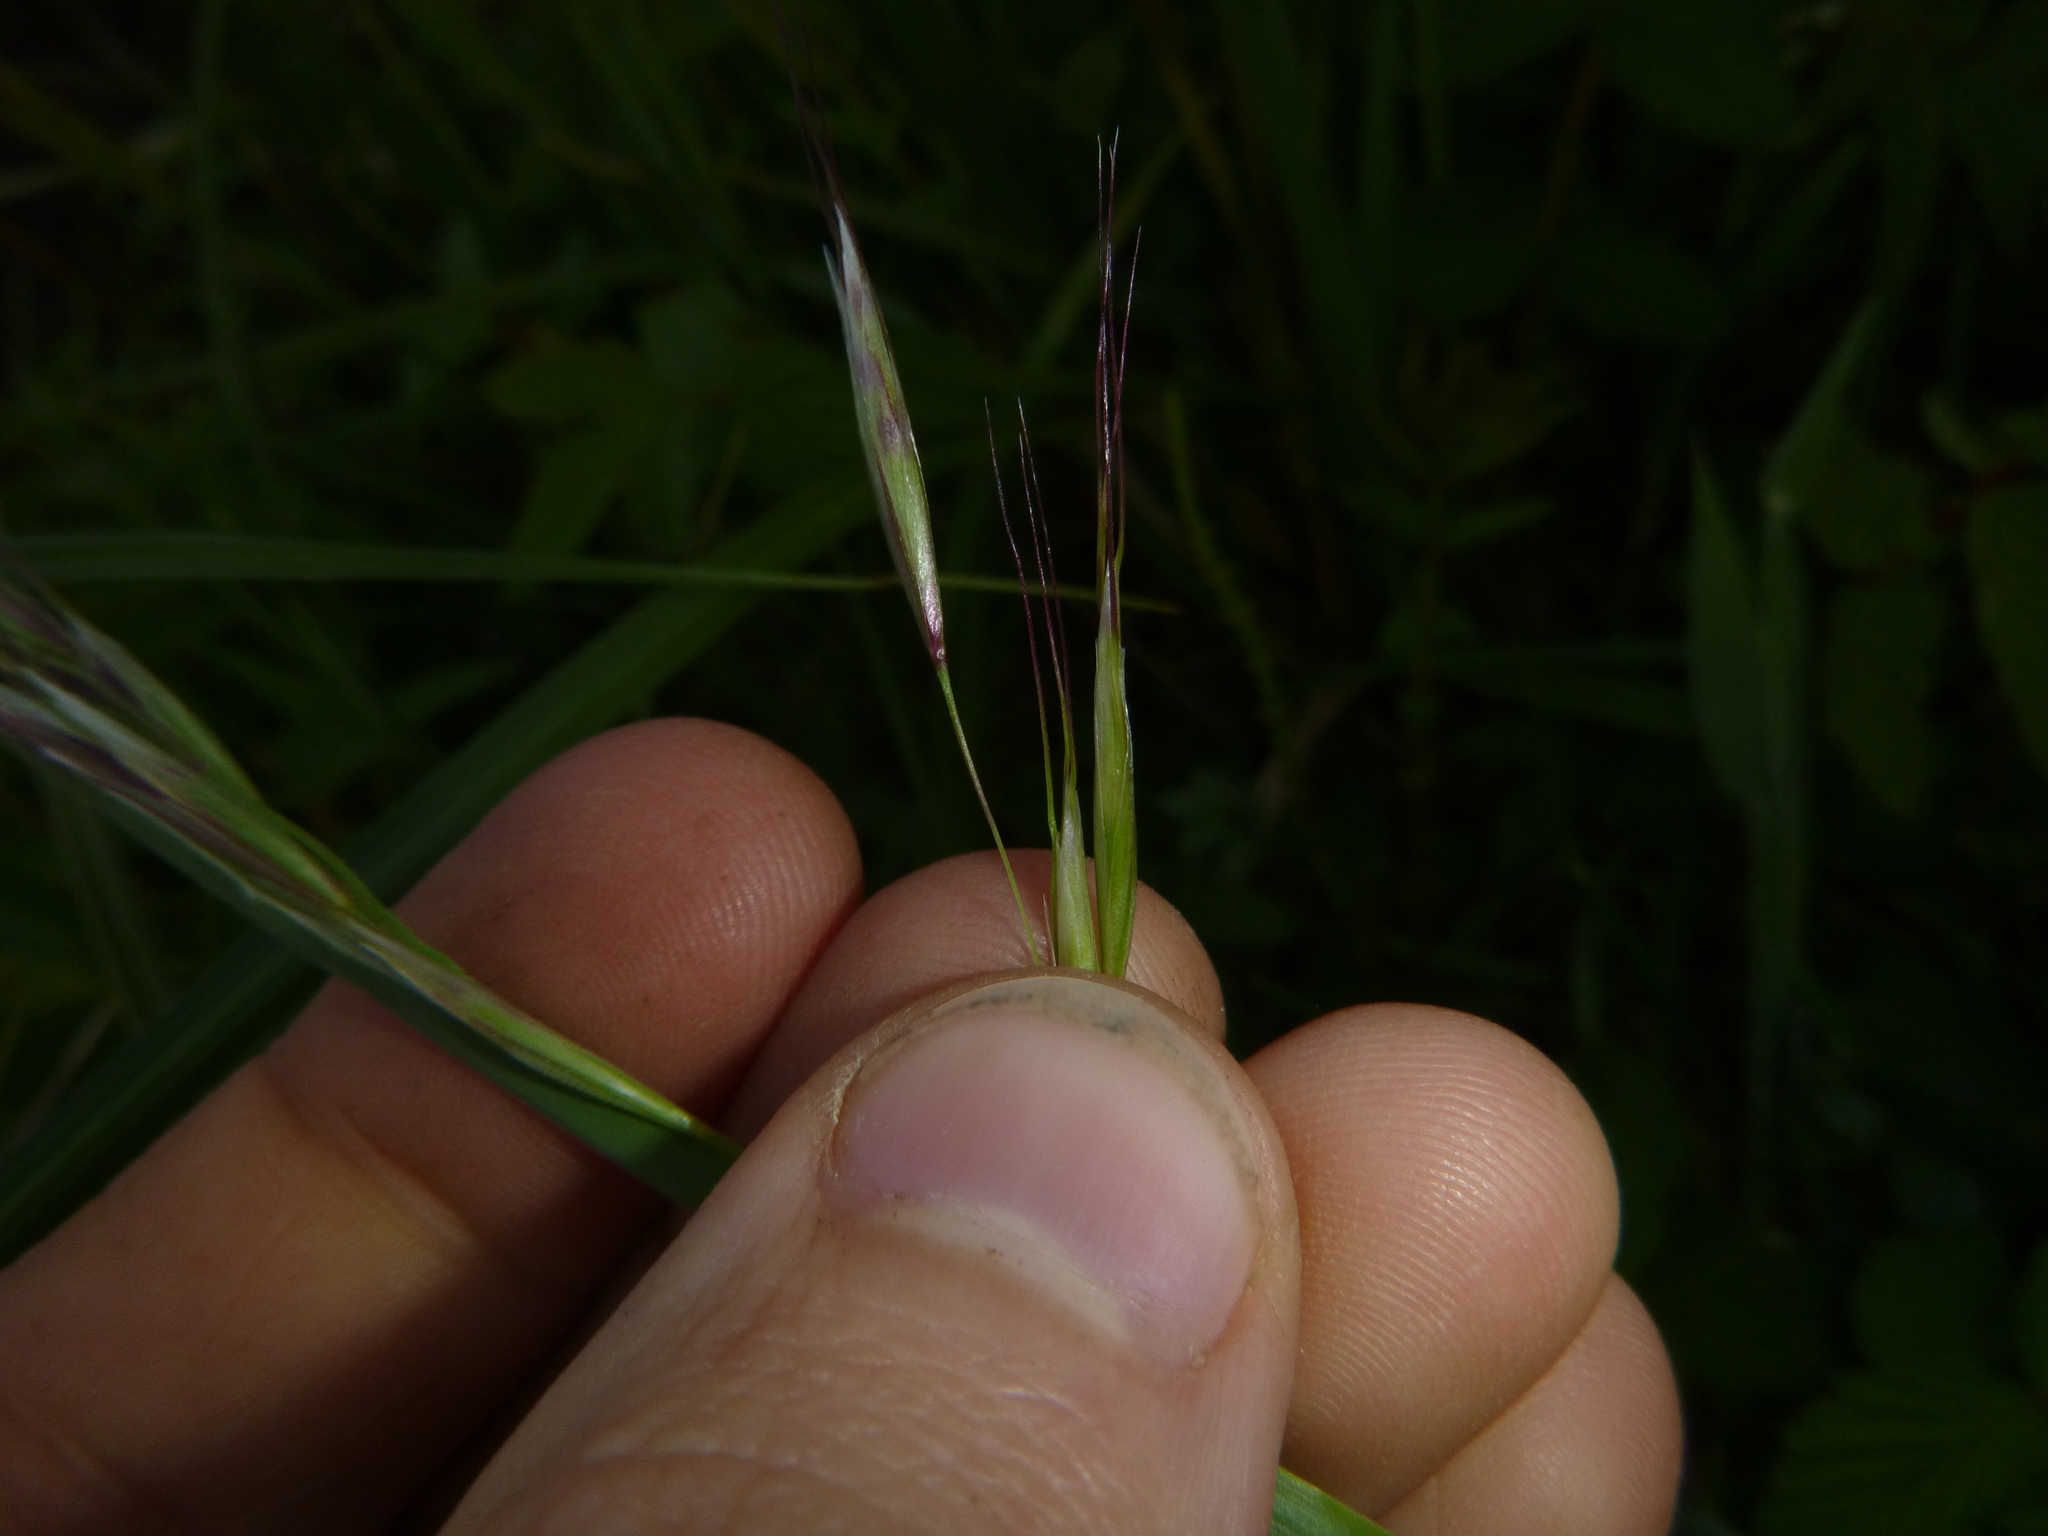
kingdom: Plantae
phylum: Tracheophyta
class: Liliopsida
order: Poales
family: Poaceae
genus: Avenula
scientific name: Avenula pubescens
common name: Downy alpine oatgrass
